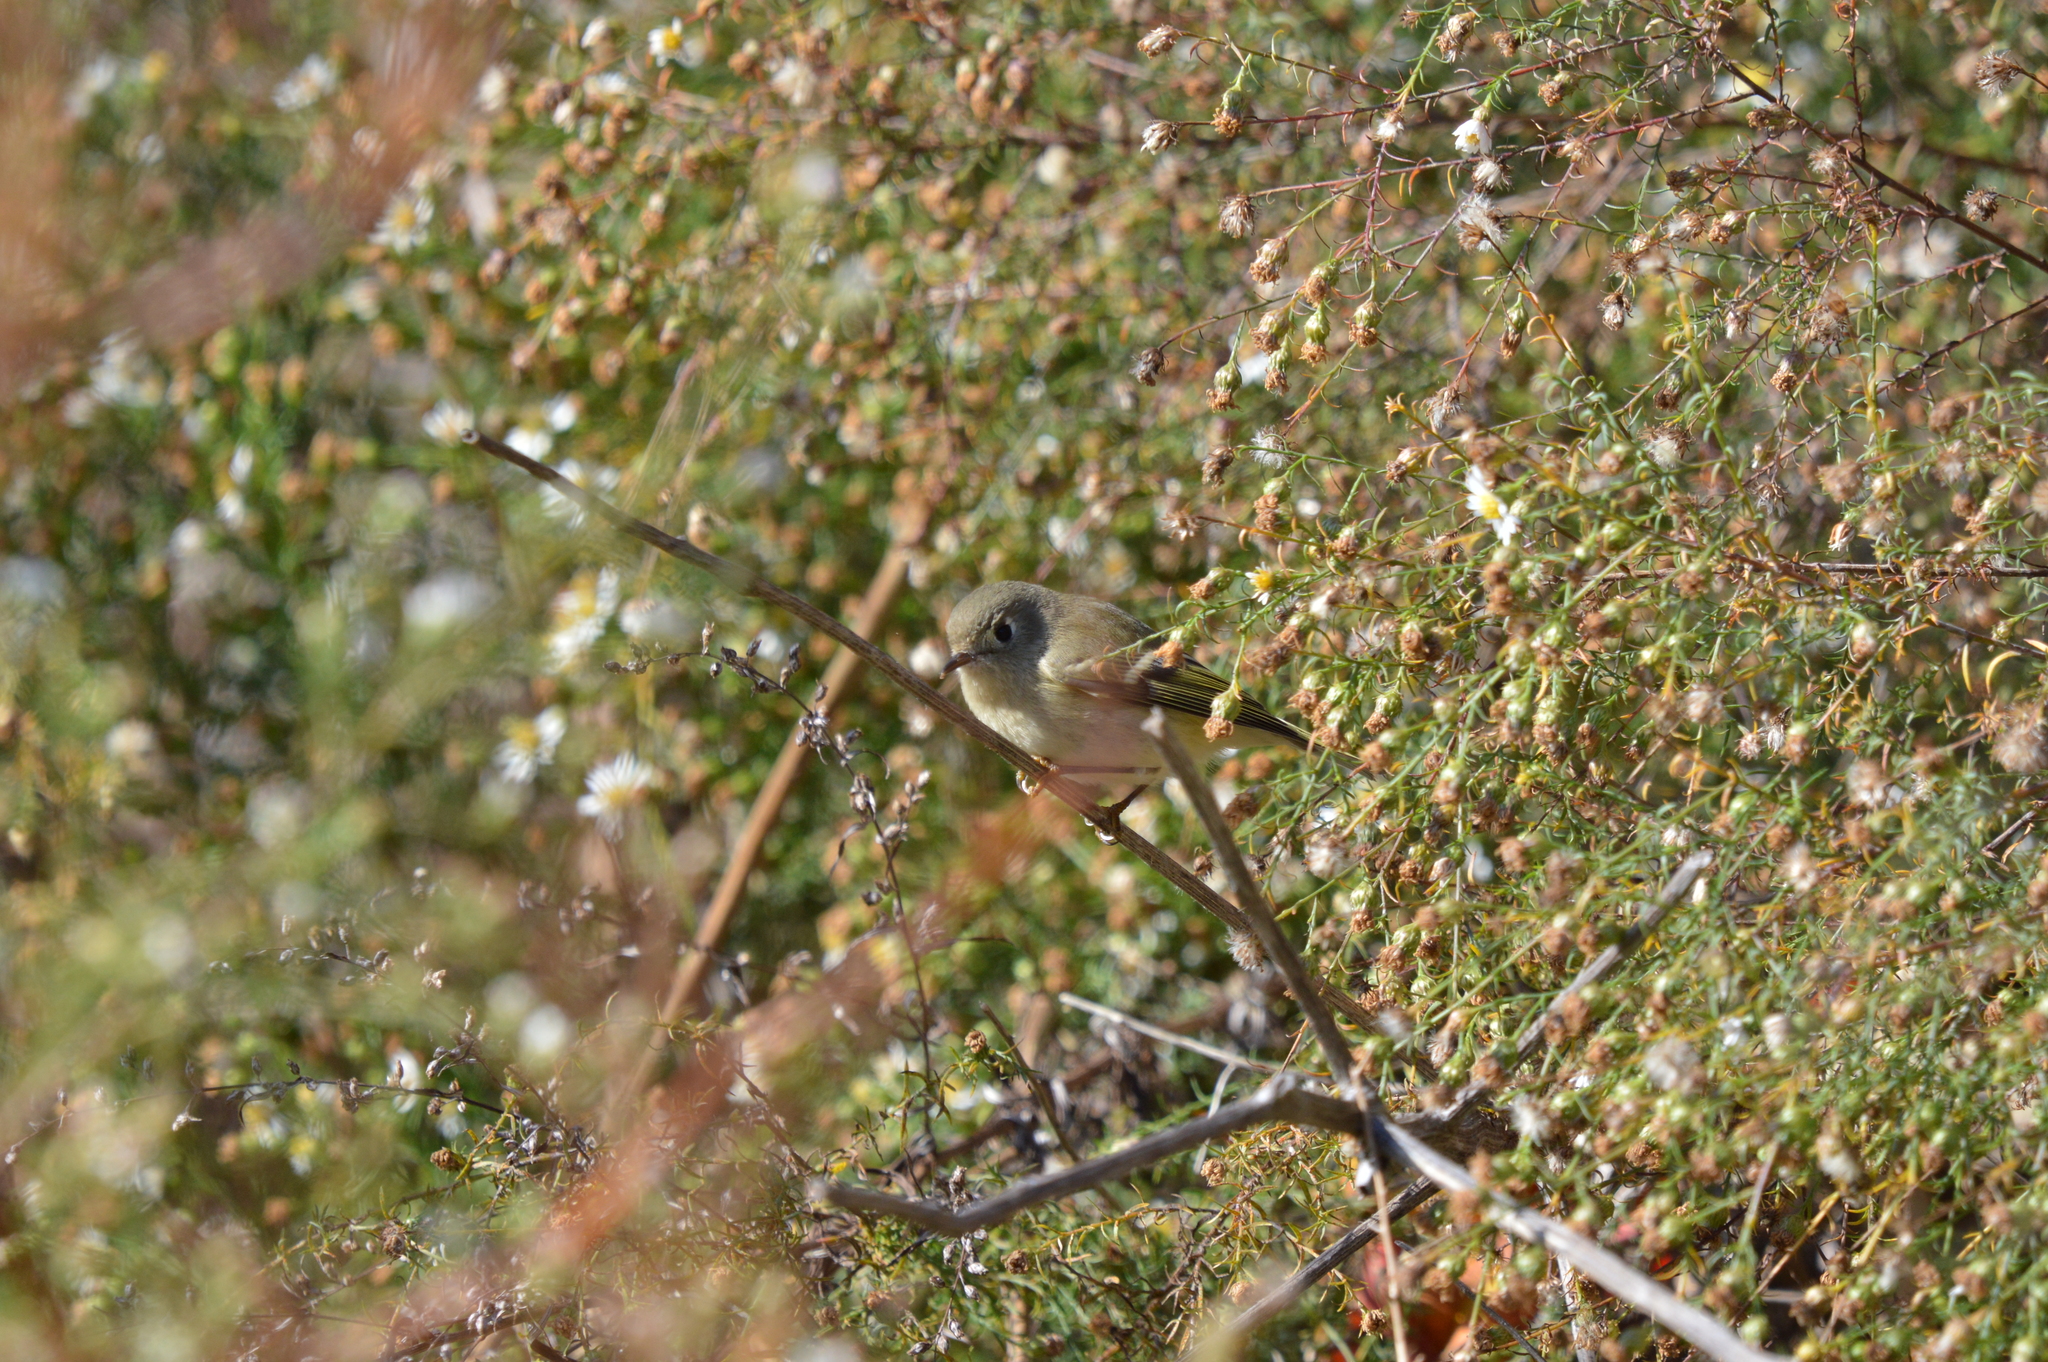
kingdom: Animalia
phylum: Chordata
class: Aves
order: Passeriformes
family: Regulidae
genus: Regulus
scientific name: Regulus calendula
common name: Ruby-crowned kinglet
